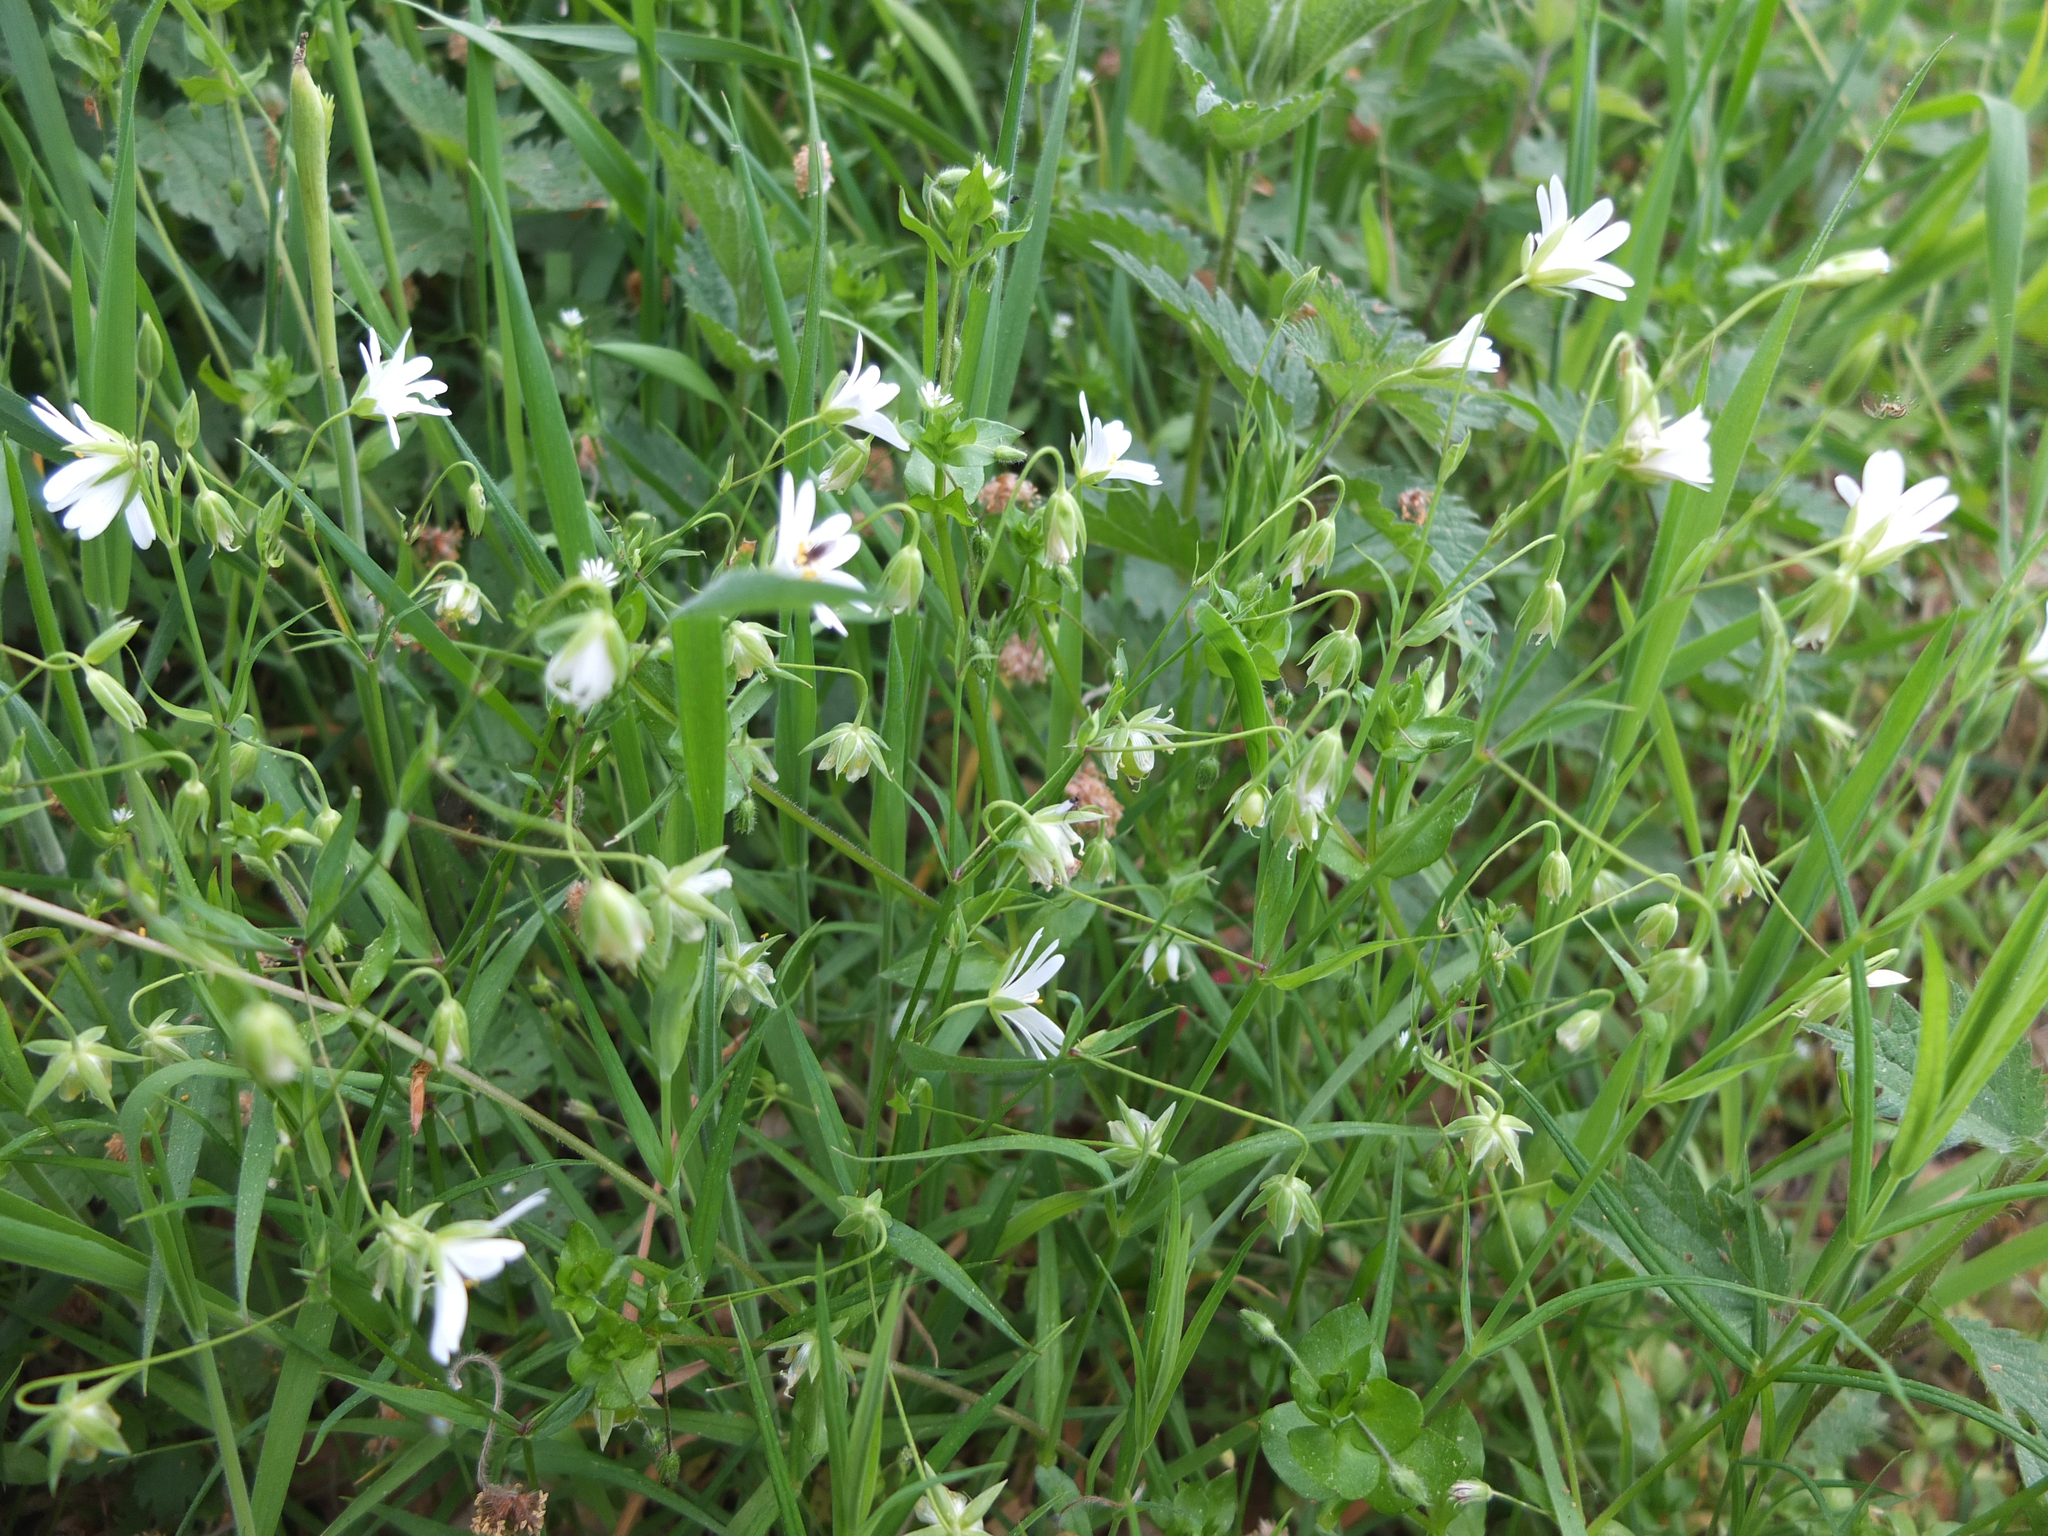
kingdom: Plantae
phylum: Tracheophyta
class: Magnoliopsida
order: Caryophyllales
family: Caryophyllaceae
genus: Rabelera
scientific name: Rabelera holostea
